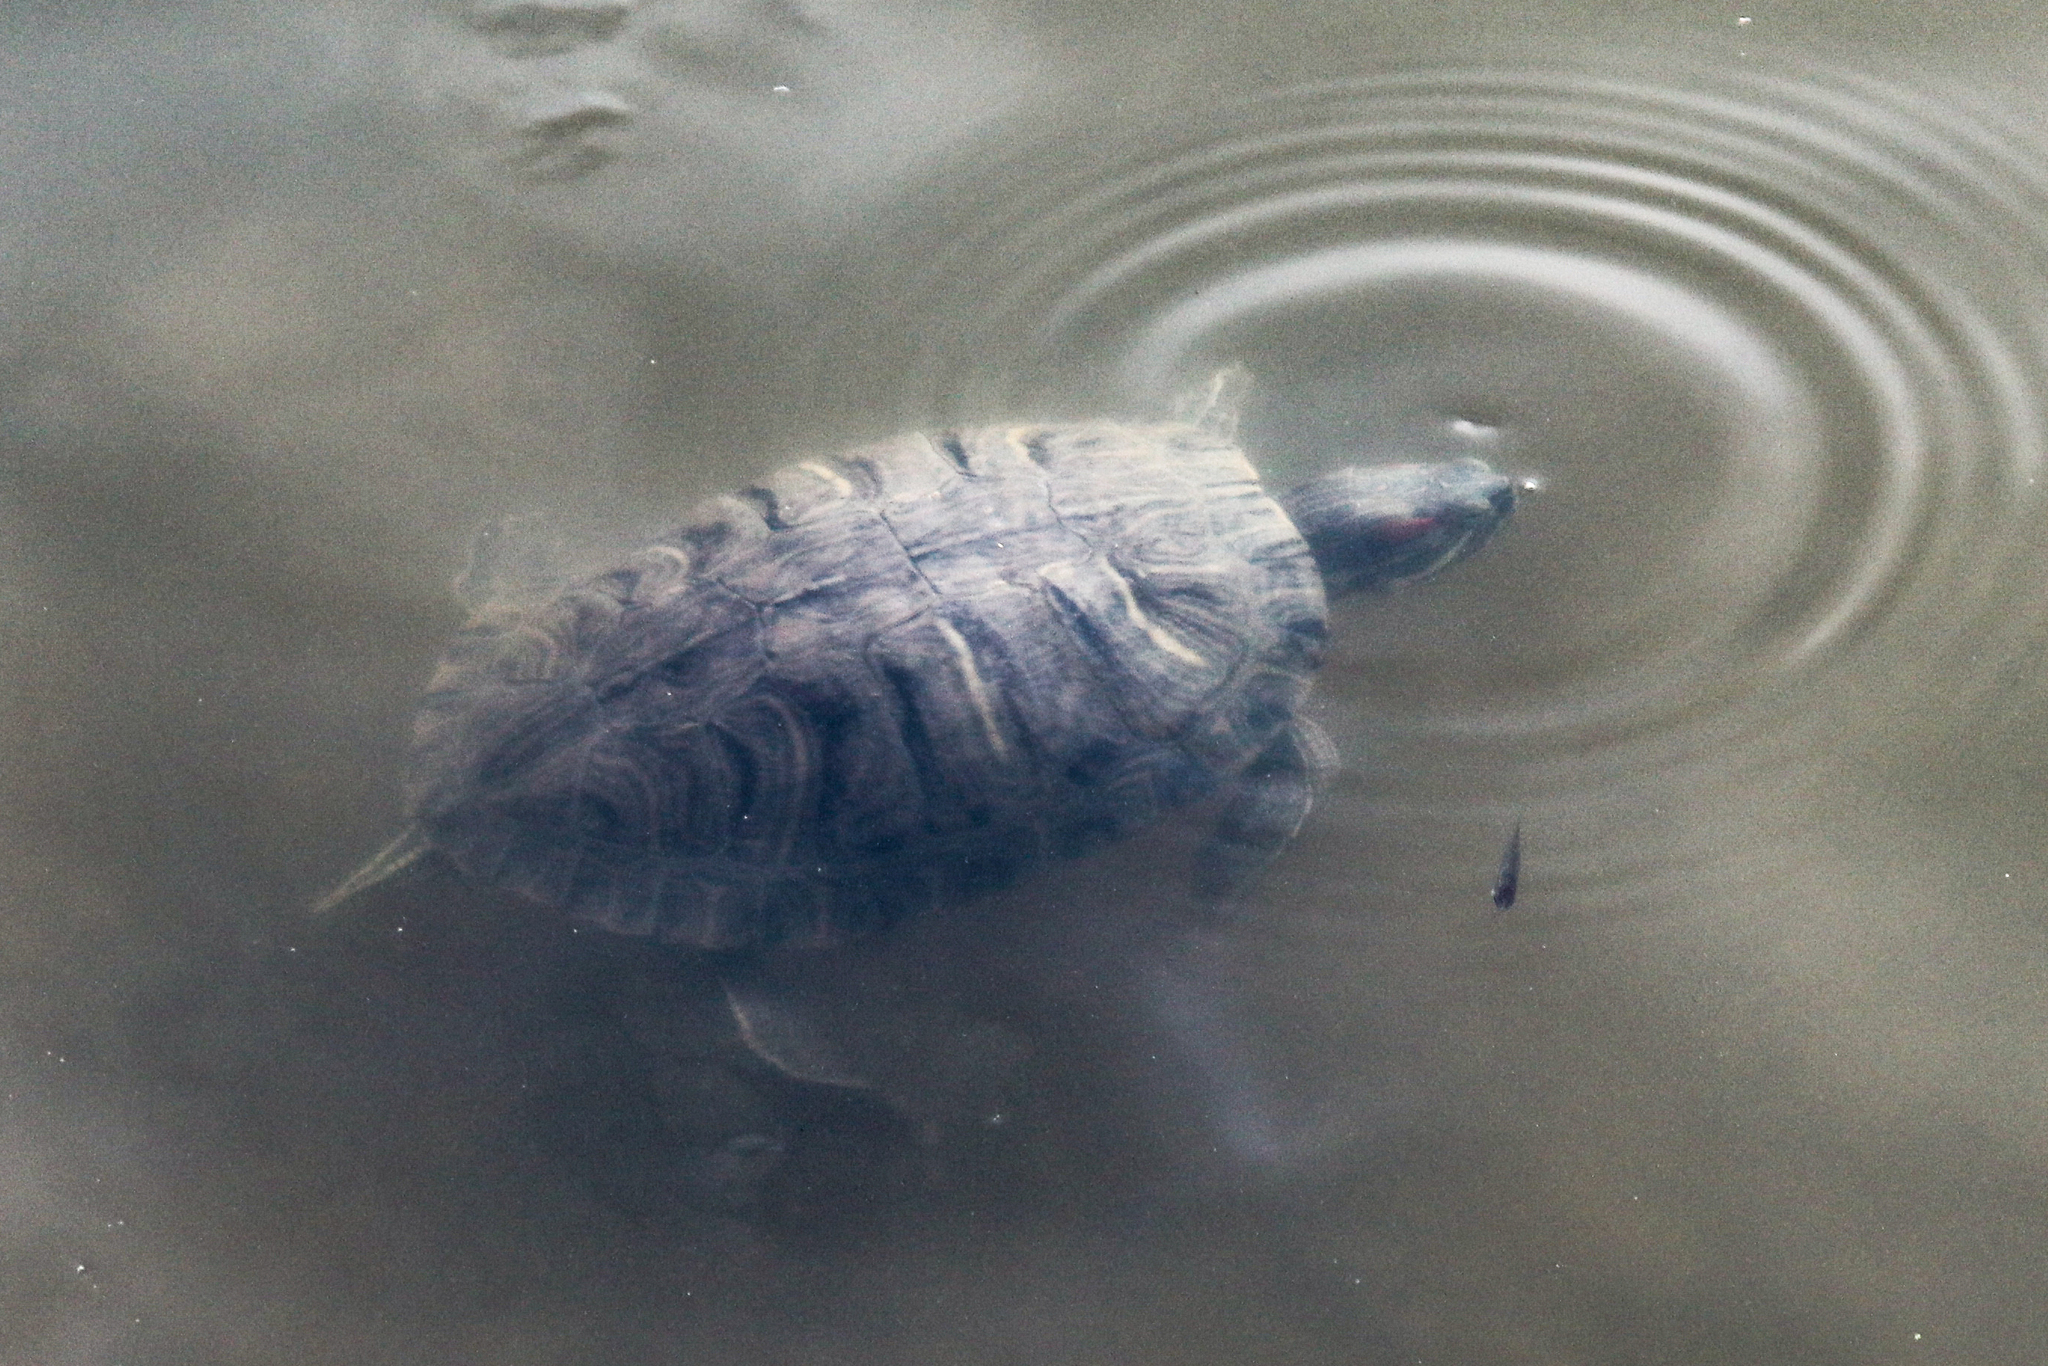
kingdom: Animalia
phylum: Chordata
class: Testudines
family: Emydidae
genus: Trachemys
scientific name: Trachemys scripta
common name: Slider
